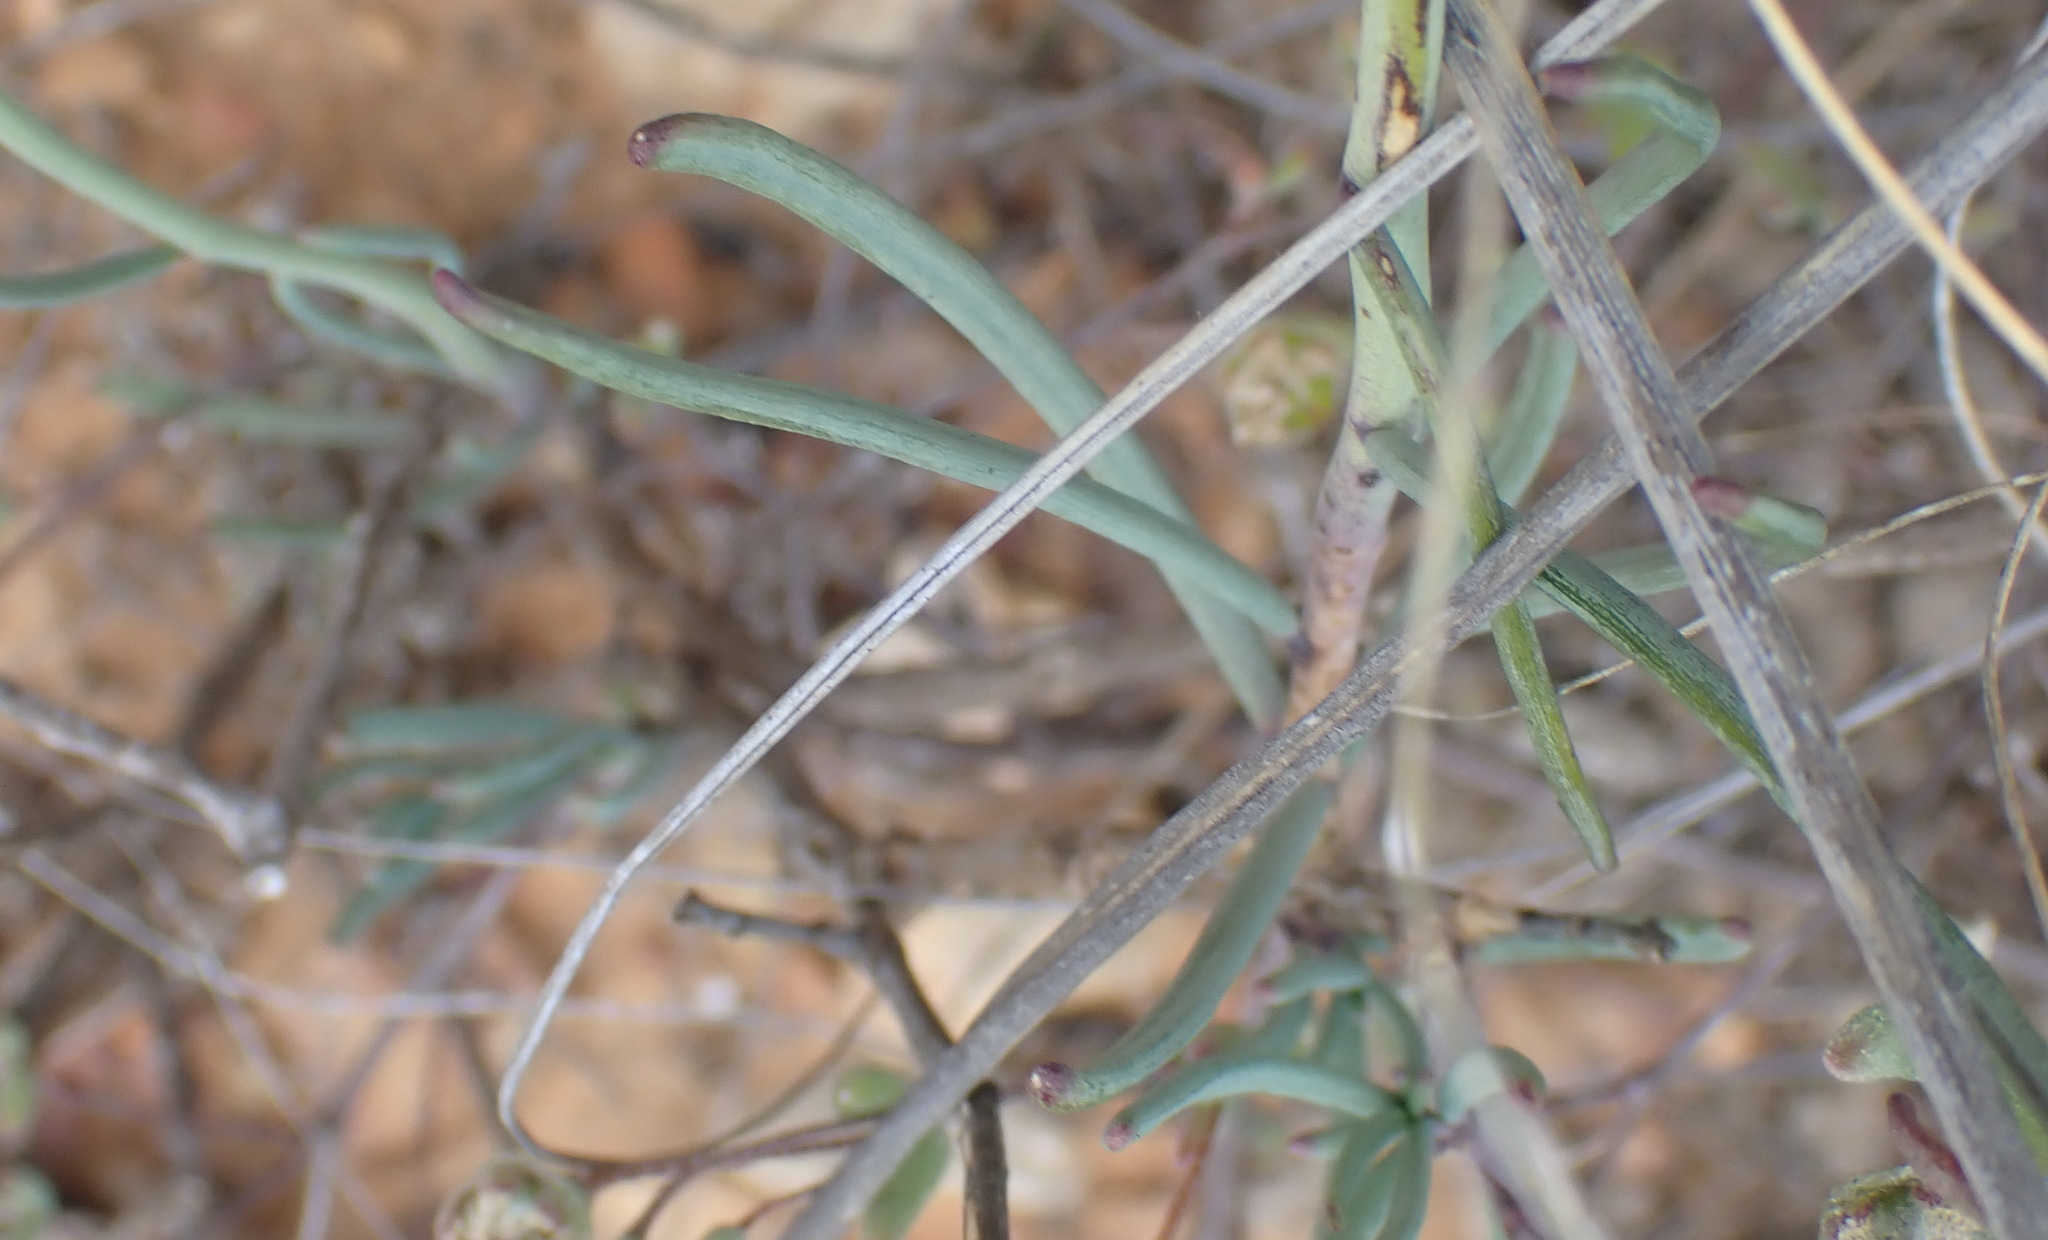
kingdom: Plantae
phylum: Tracheophyta
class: Magnoliopsida
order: Brassicales
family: Brassicaceae
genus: Heliophila
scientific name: Heliophila cornuta
